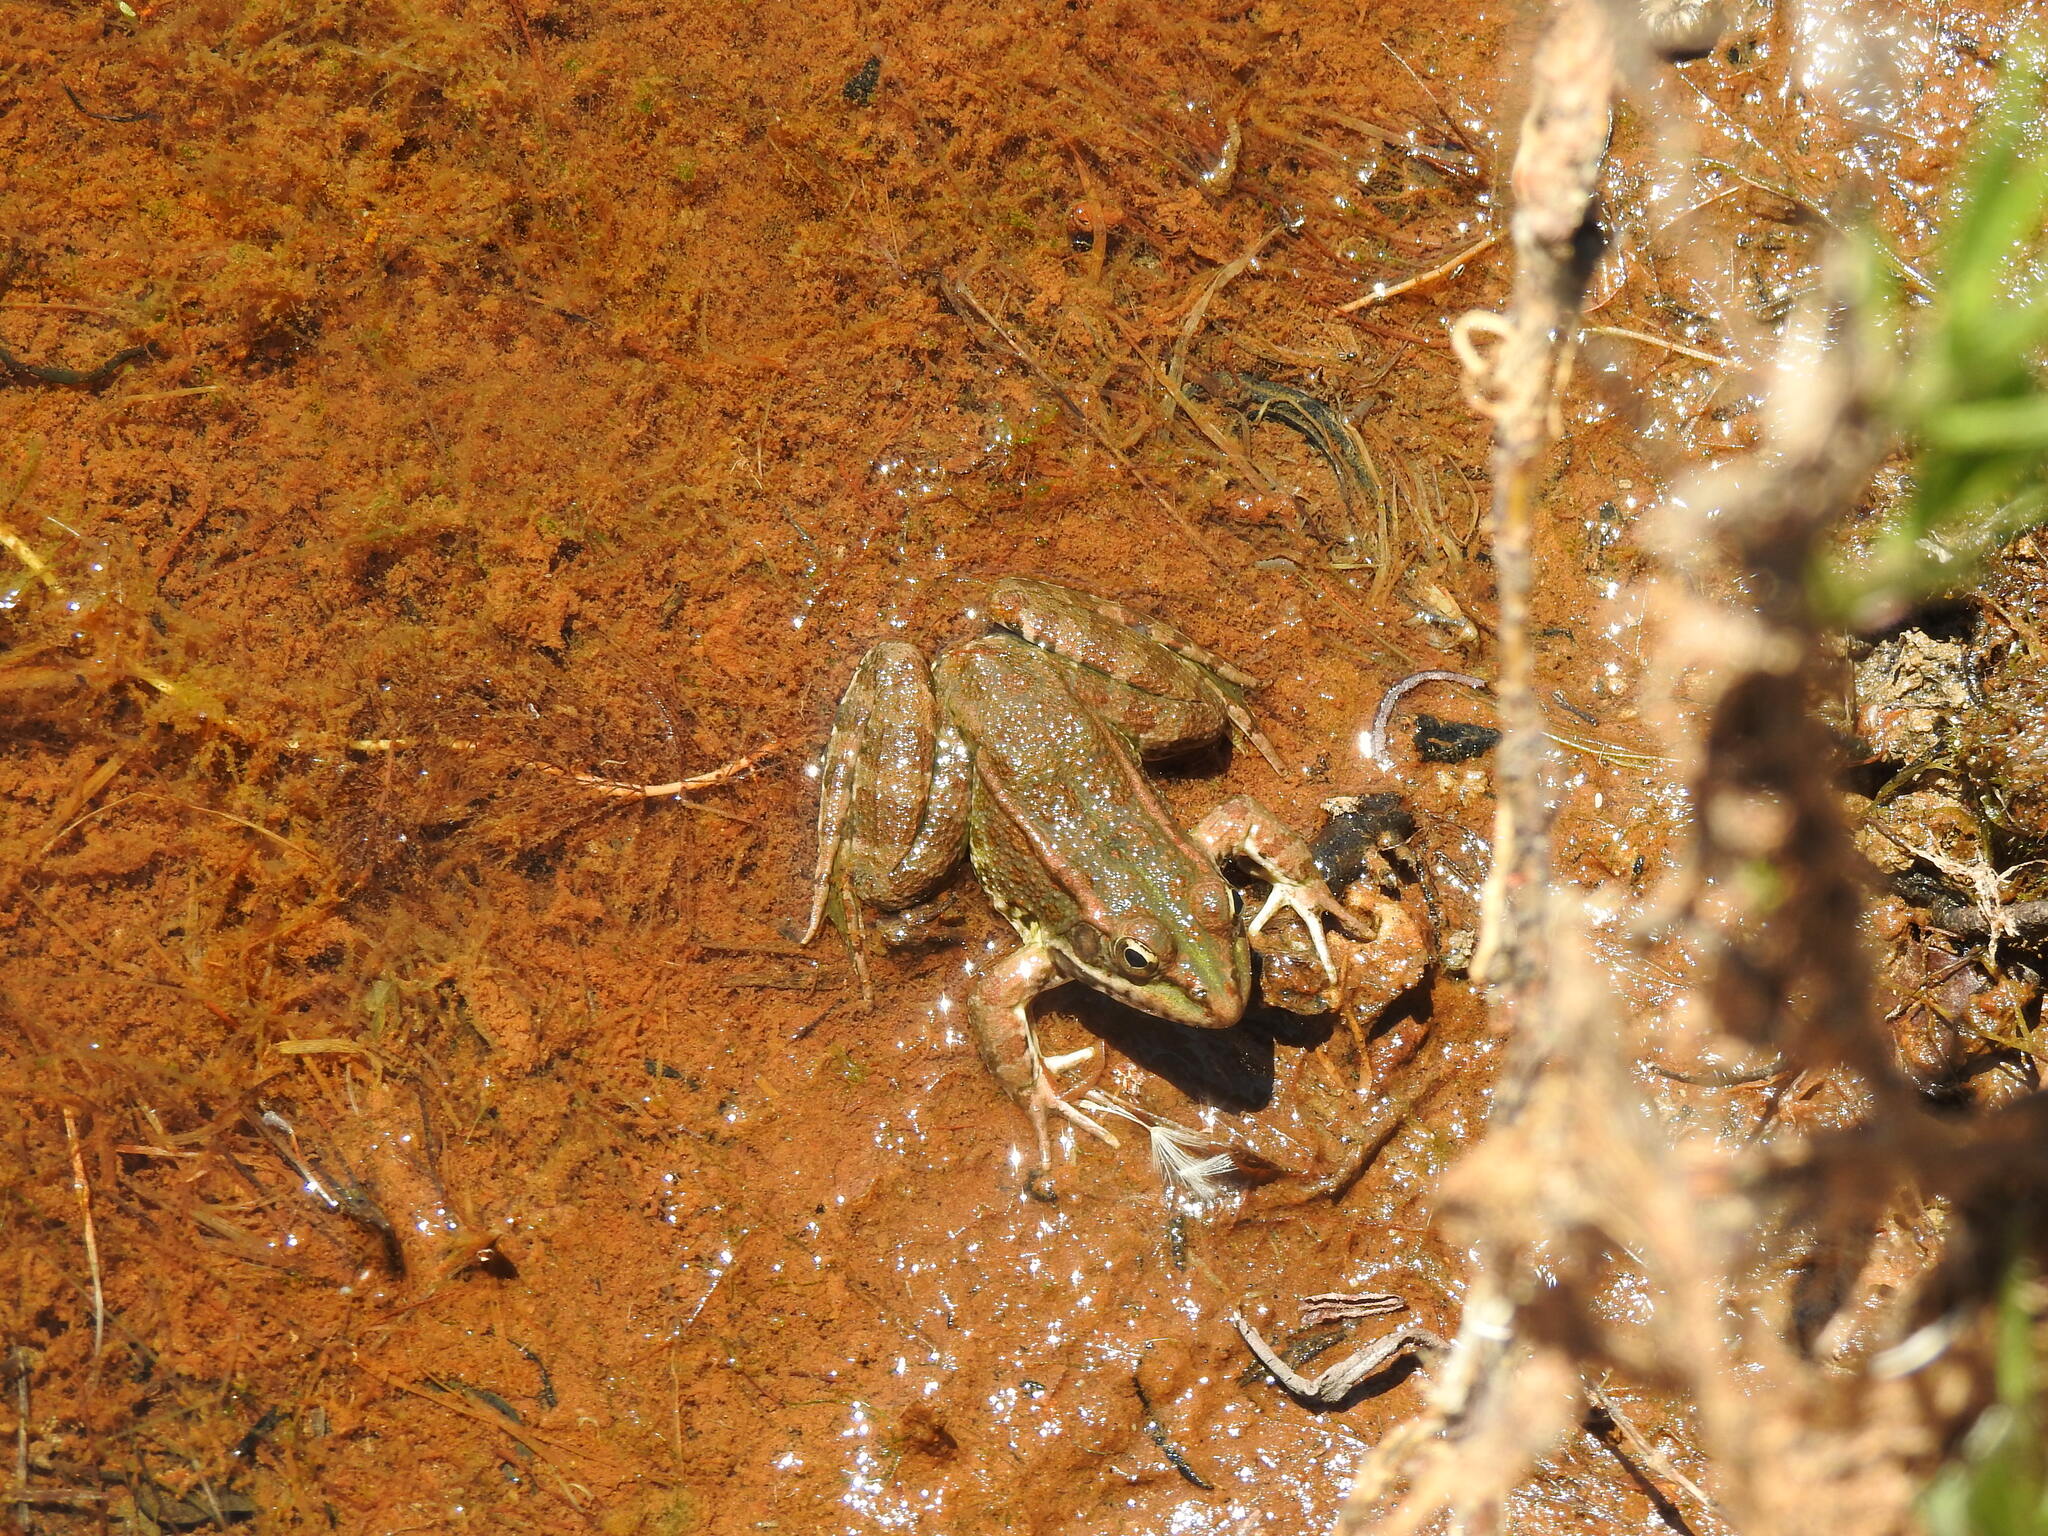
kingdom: Animalia
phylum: Chordata
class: Amphibia
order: Anura
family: Ranidae
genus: Pelophylax
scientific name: Pelophylax perezi
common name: Perez's frog
